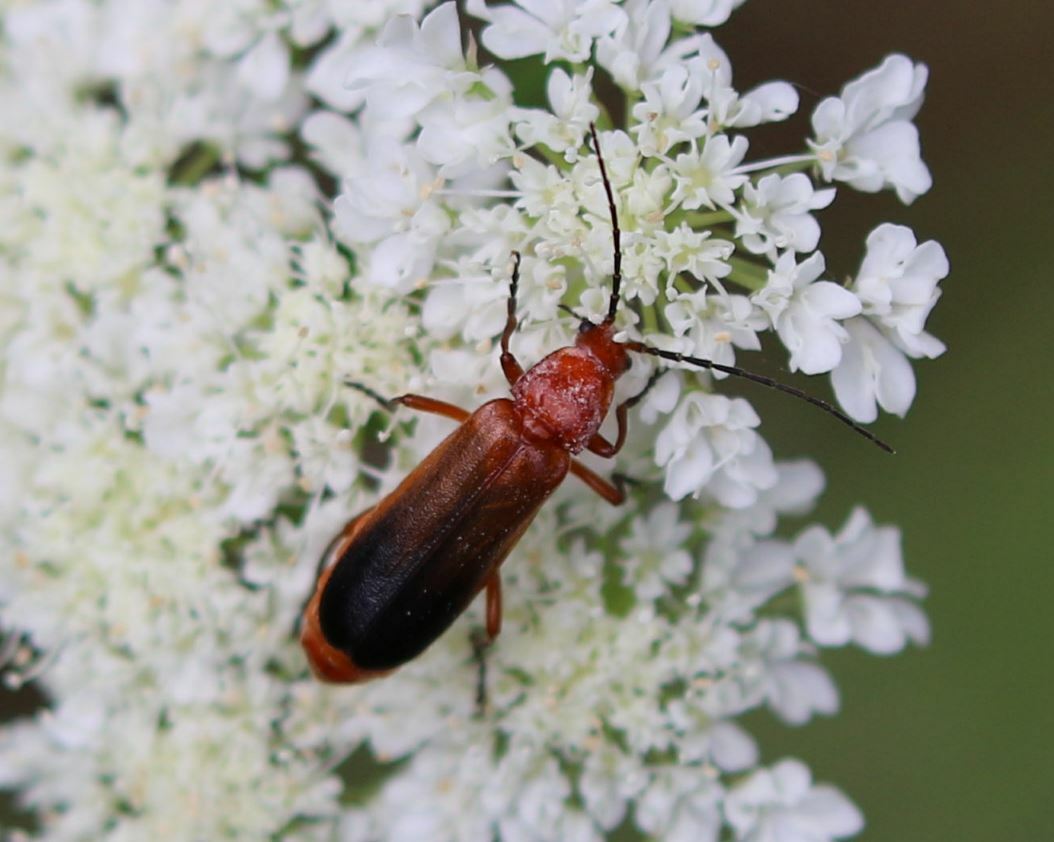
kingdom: Animalia
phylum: Arthropoda
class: Insecta
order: Coleoptera
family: Cantharidae
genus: Rhagonycha
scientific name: Rhagonycha fulva
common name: Common red soldier beetle
